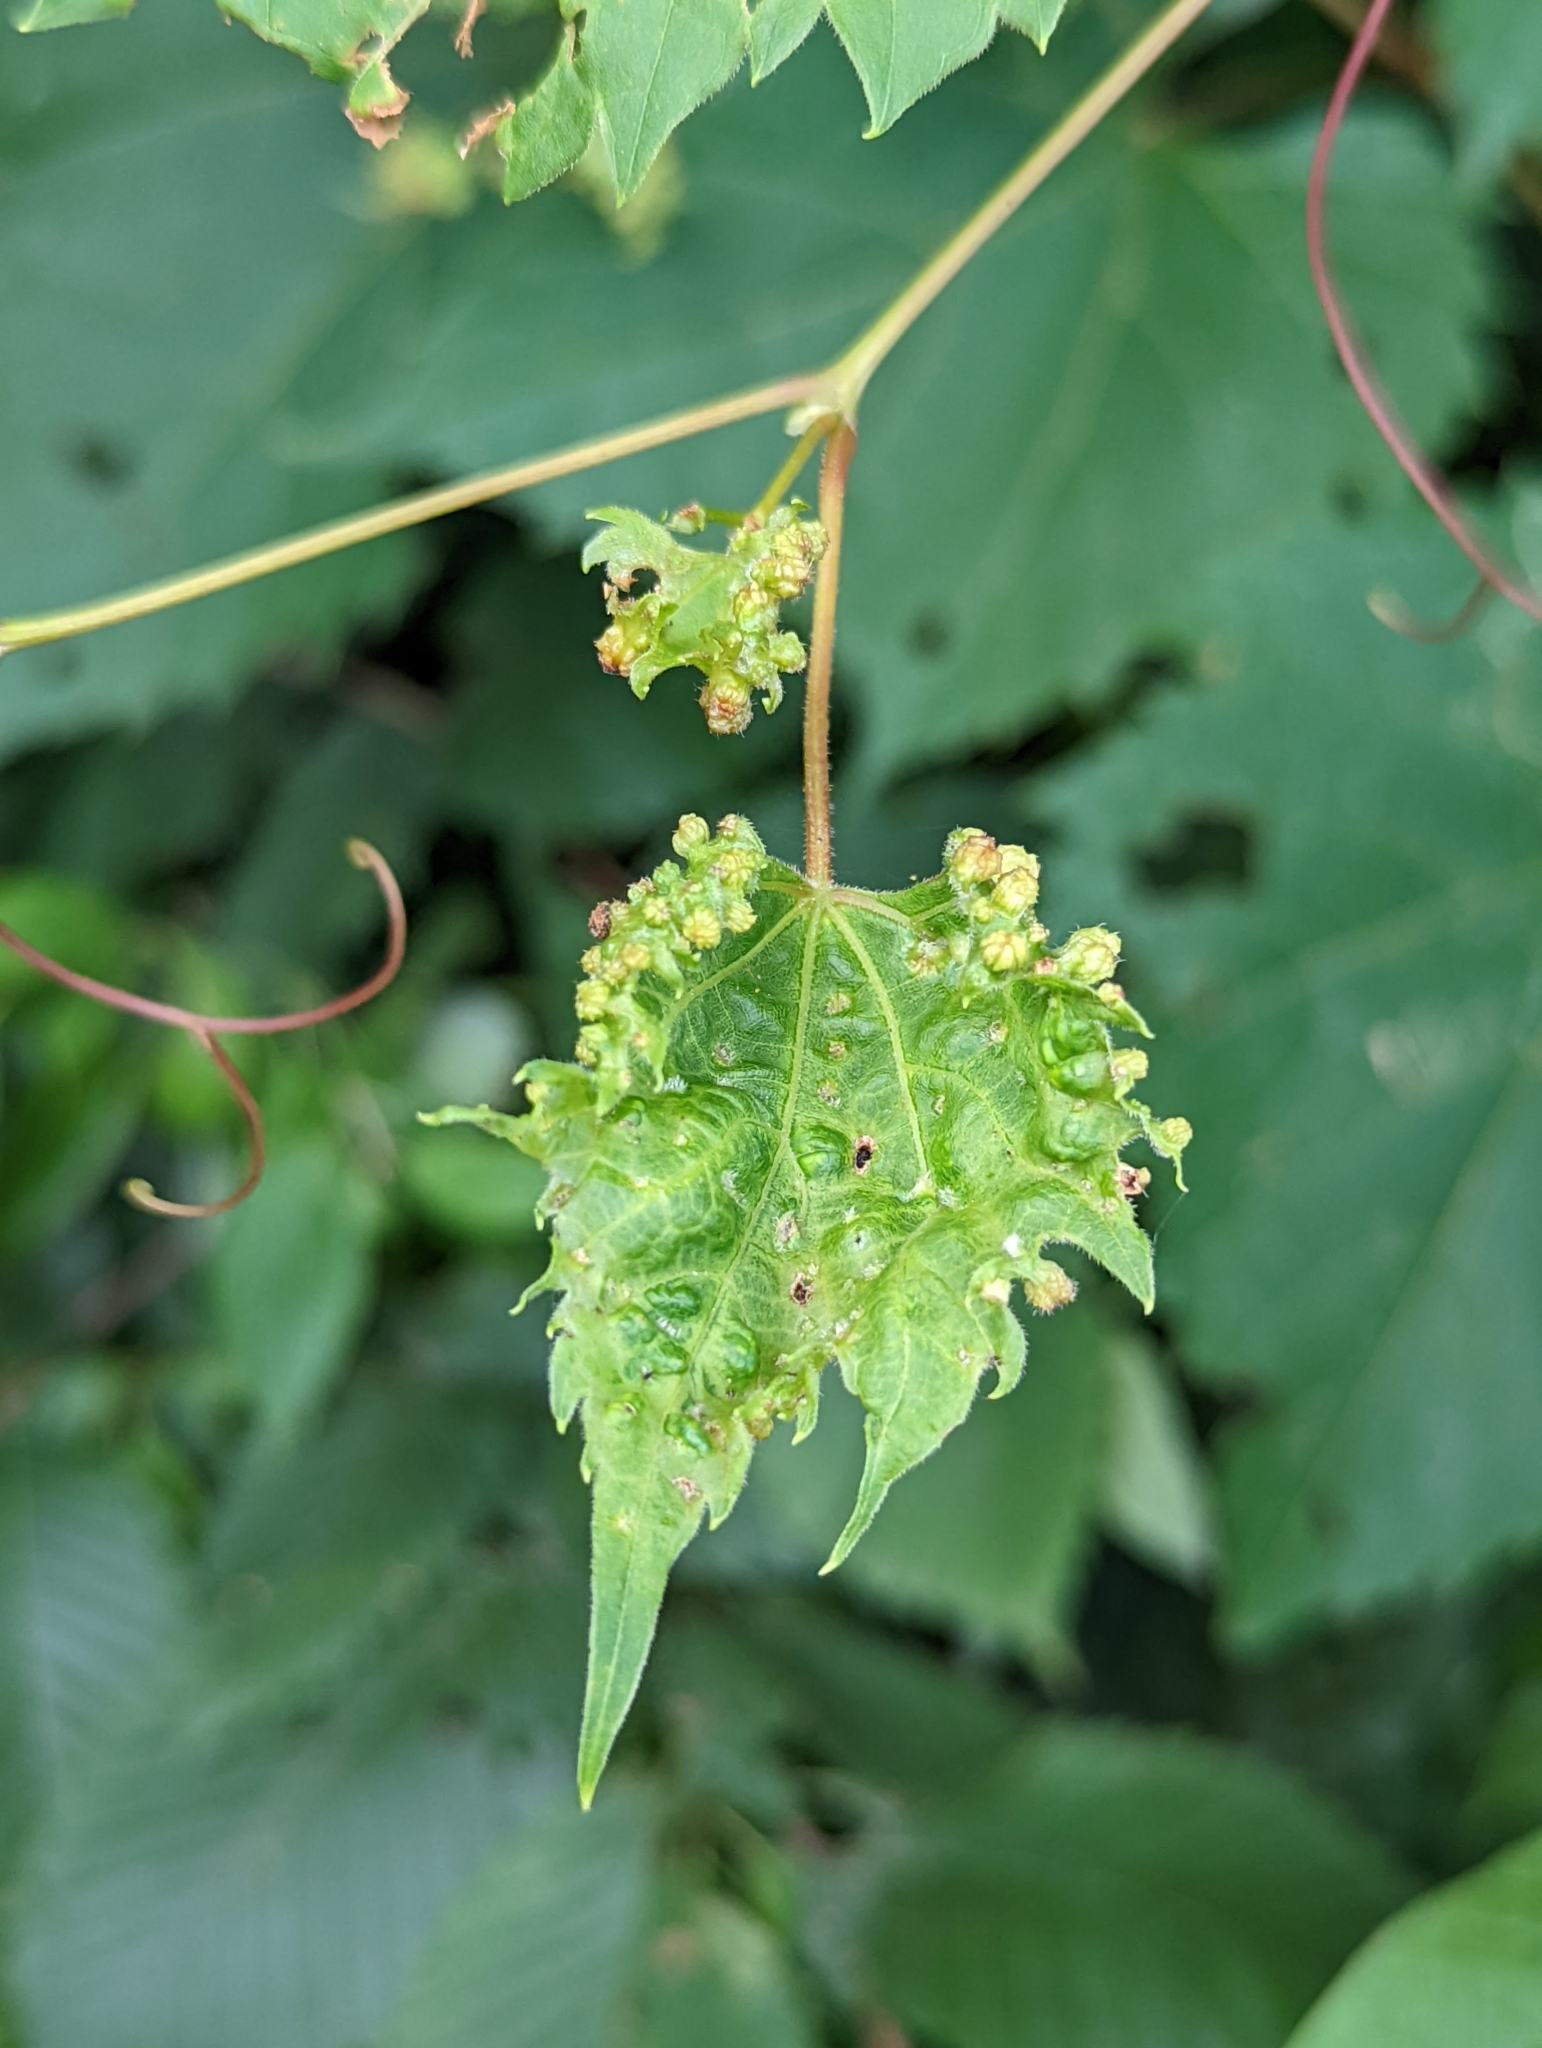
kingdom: Animalia
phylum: Arthropoda
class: Insecta
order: Hemiptera
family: Phylloxeridae
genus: Daktulosphaira
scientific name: Daktulosphaira vitifoliae
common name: Grape phylloxera
